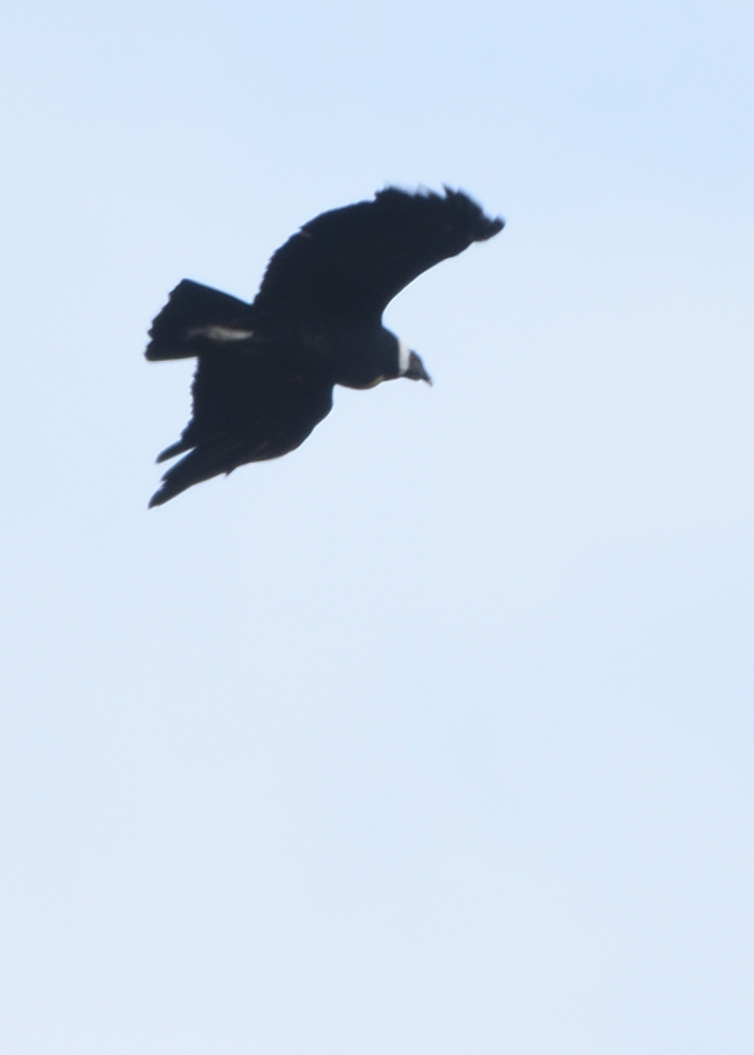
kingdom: Animalia
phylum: Chordata
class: Aves
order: Accipitriformes
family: Cathartidae
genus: Vultur
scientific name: Vultur gryphus
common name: Andean condor
